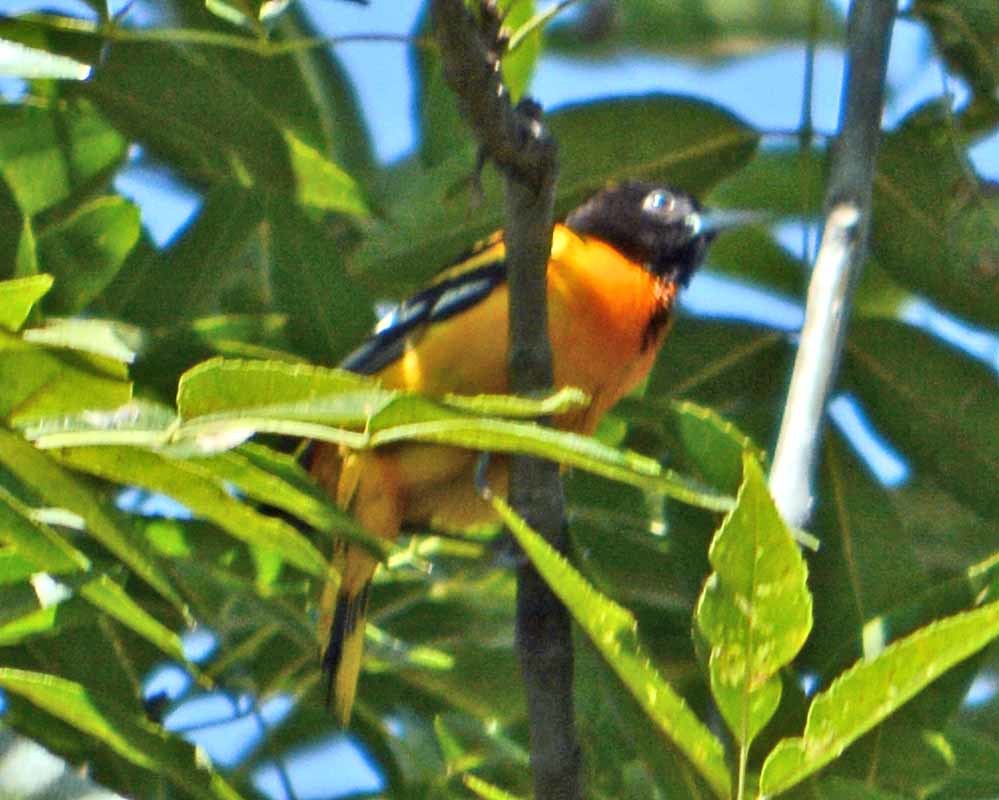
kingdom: Animalia
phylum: Chordata
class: Aves
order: Passeriformes
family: Icteridae
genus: Icterus
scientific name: Icterus galbula
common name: Baltimore oriole
